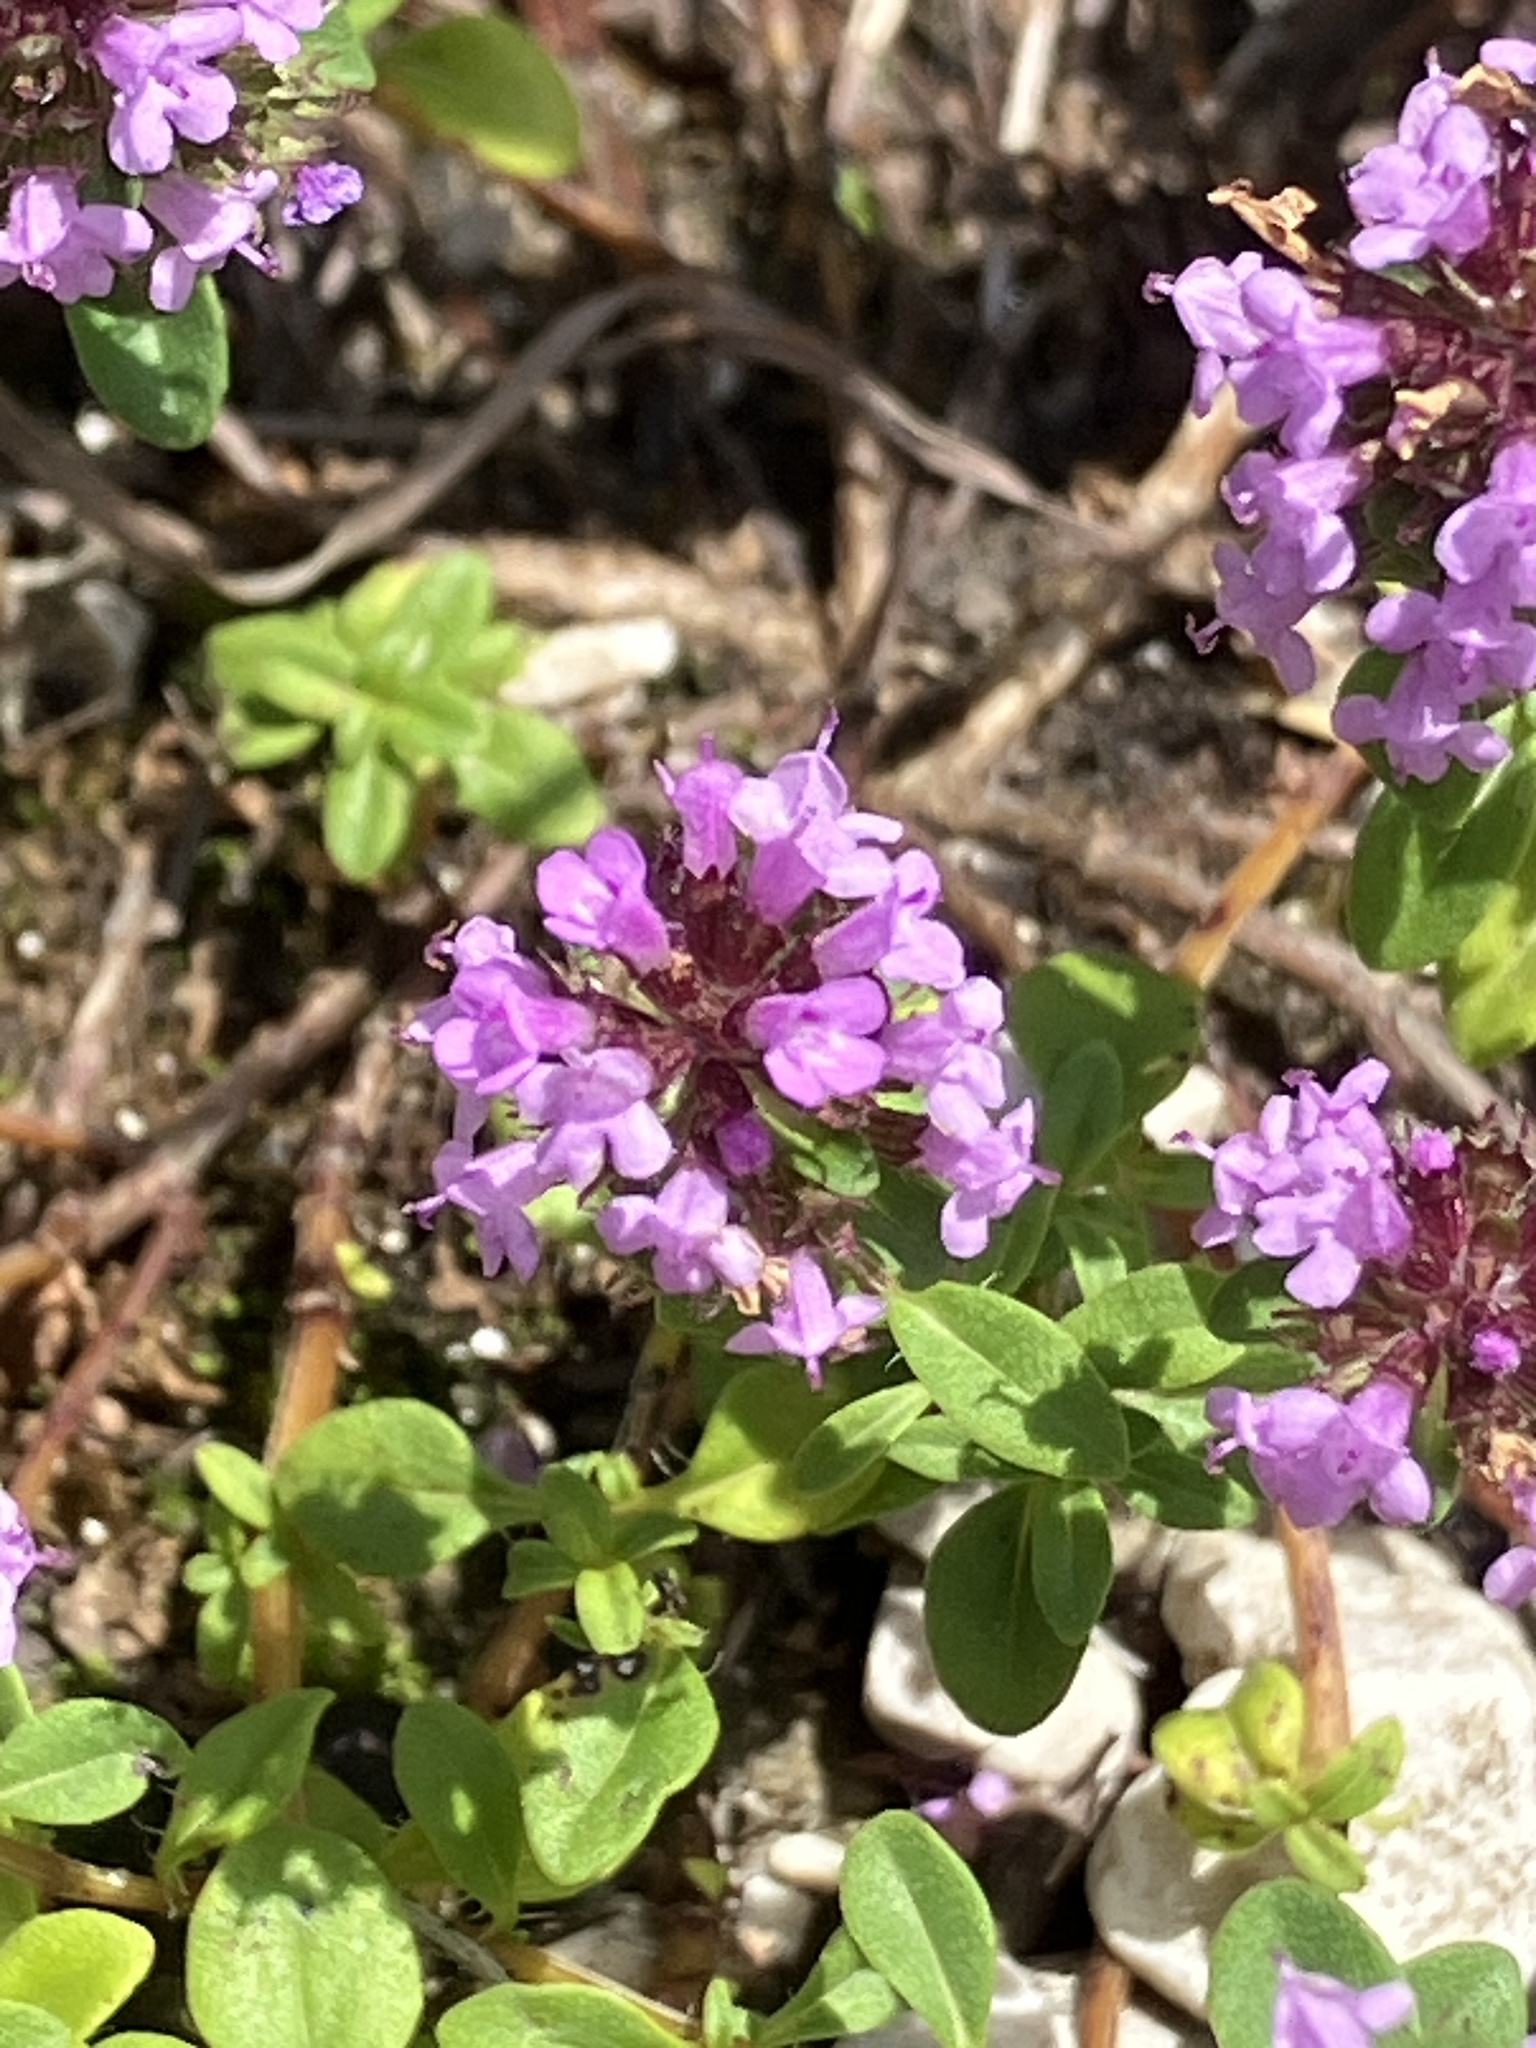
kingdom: Plantae
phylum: Tracheophyta
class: Magnoliopsida
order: Lamiales
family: Lamiaceae
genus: Thymus
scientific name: Thymus pulegioides
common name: Large thyme
